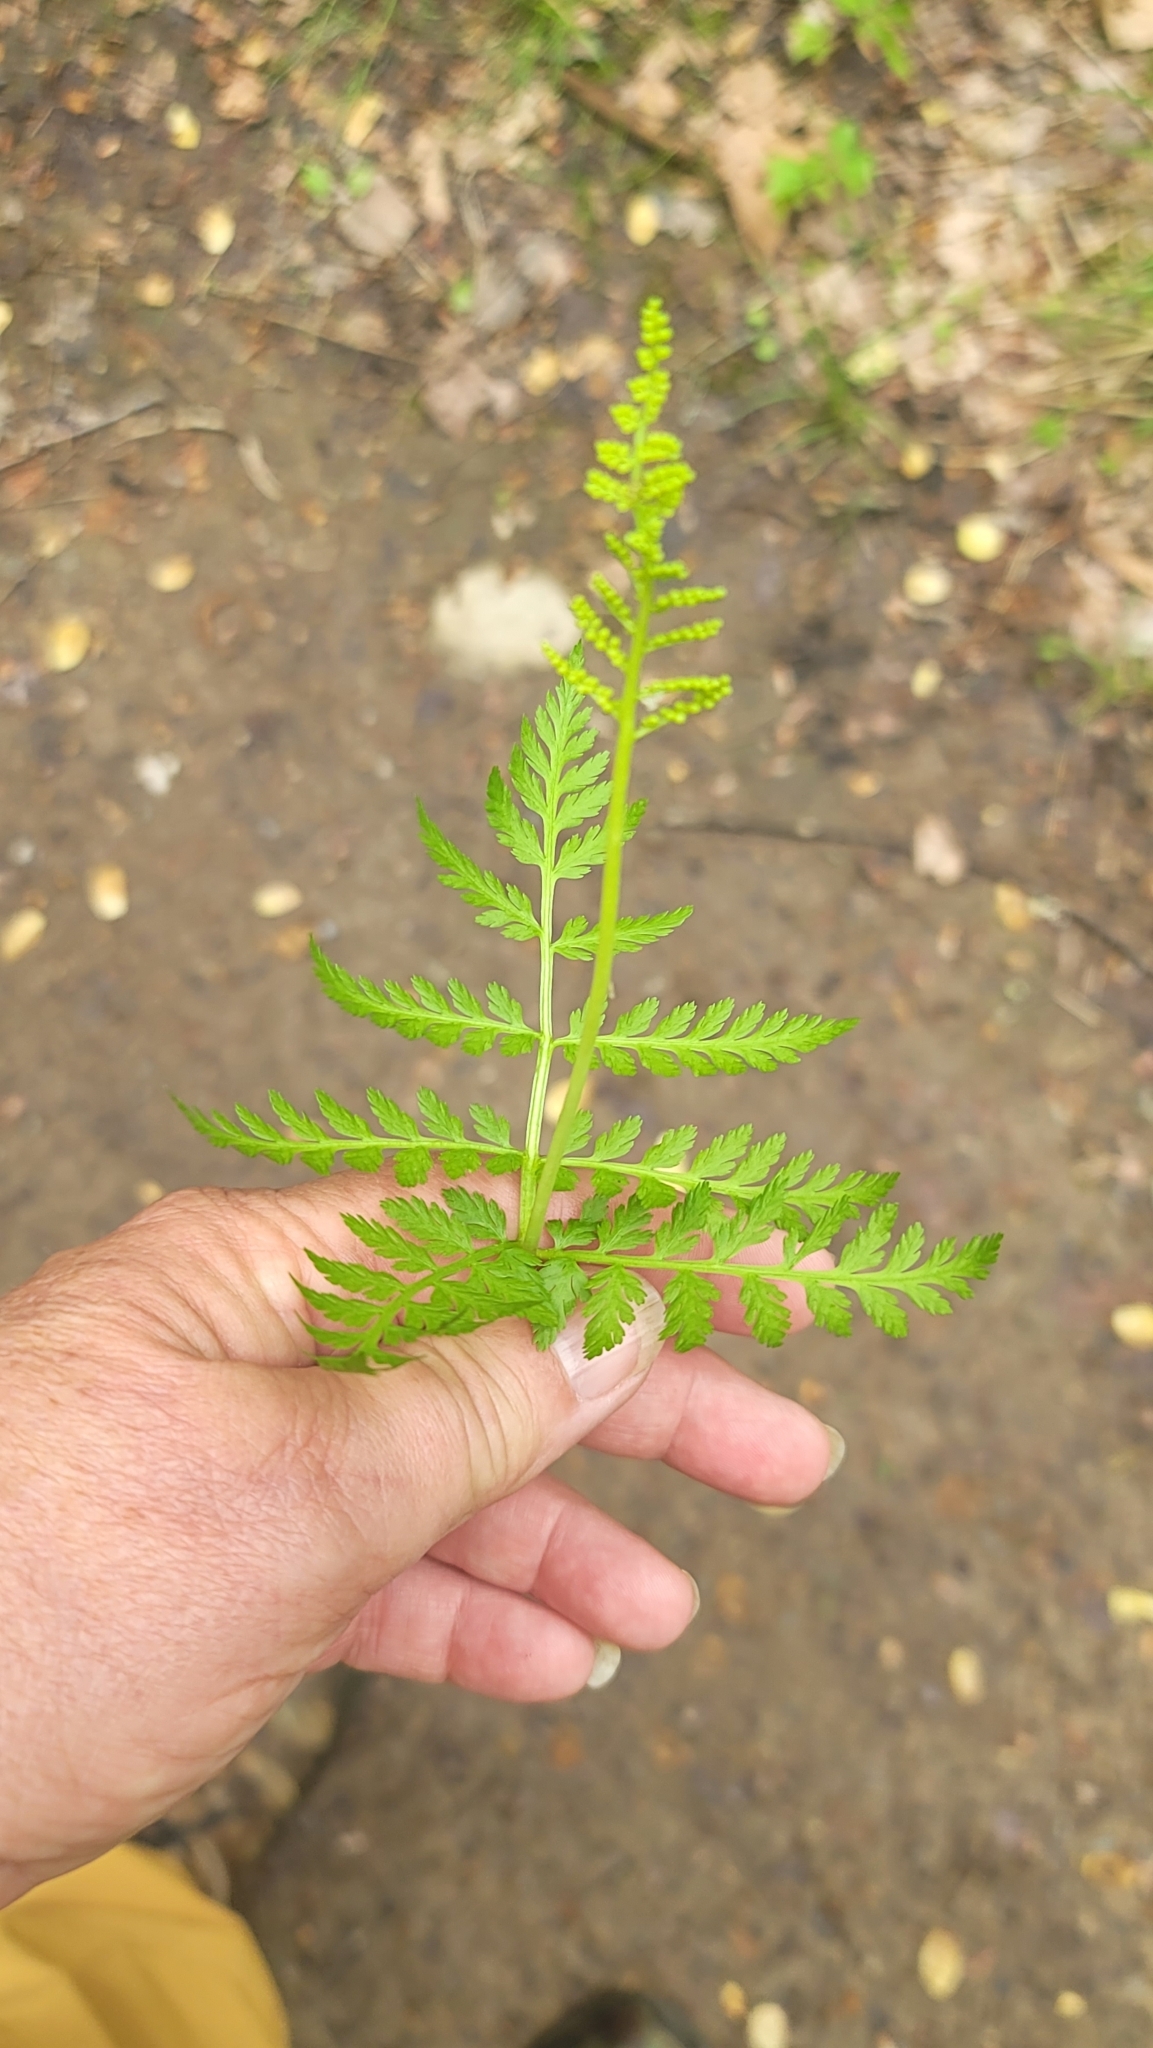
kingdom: Plantae
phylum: Tracheophyta
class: Polypodiopsida
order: Ophioglossales
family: Ophioglossaceae
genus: Botrypus
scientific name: Botrypus virginianus
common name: Common grapefern
